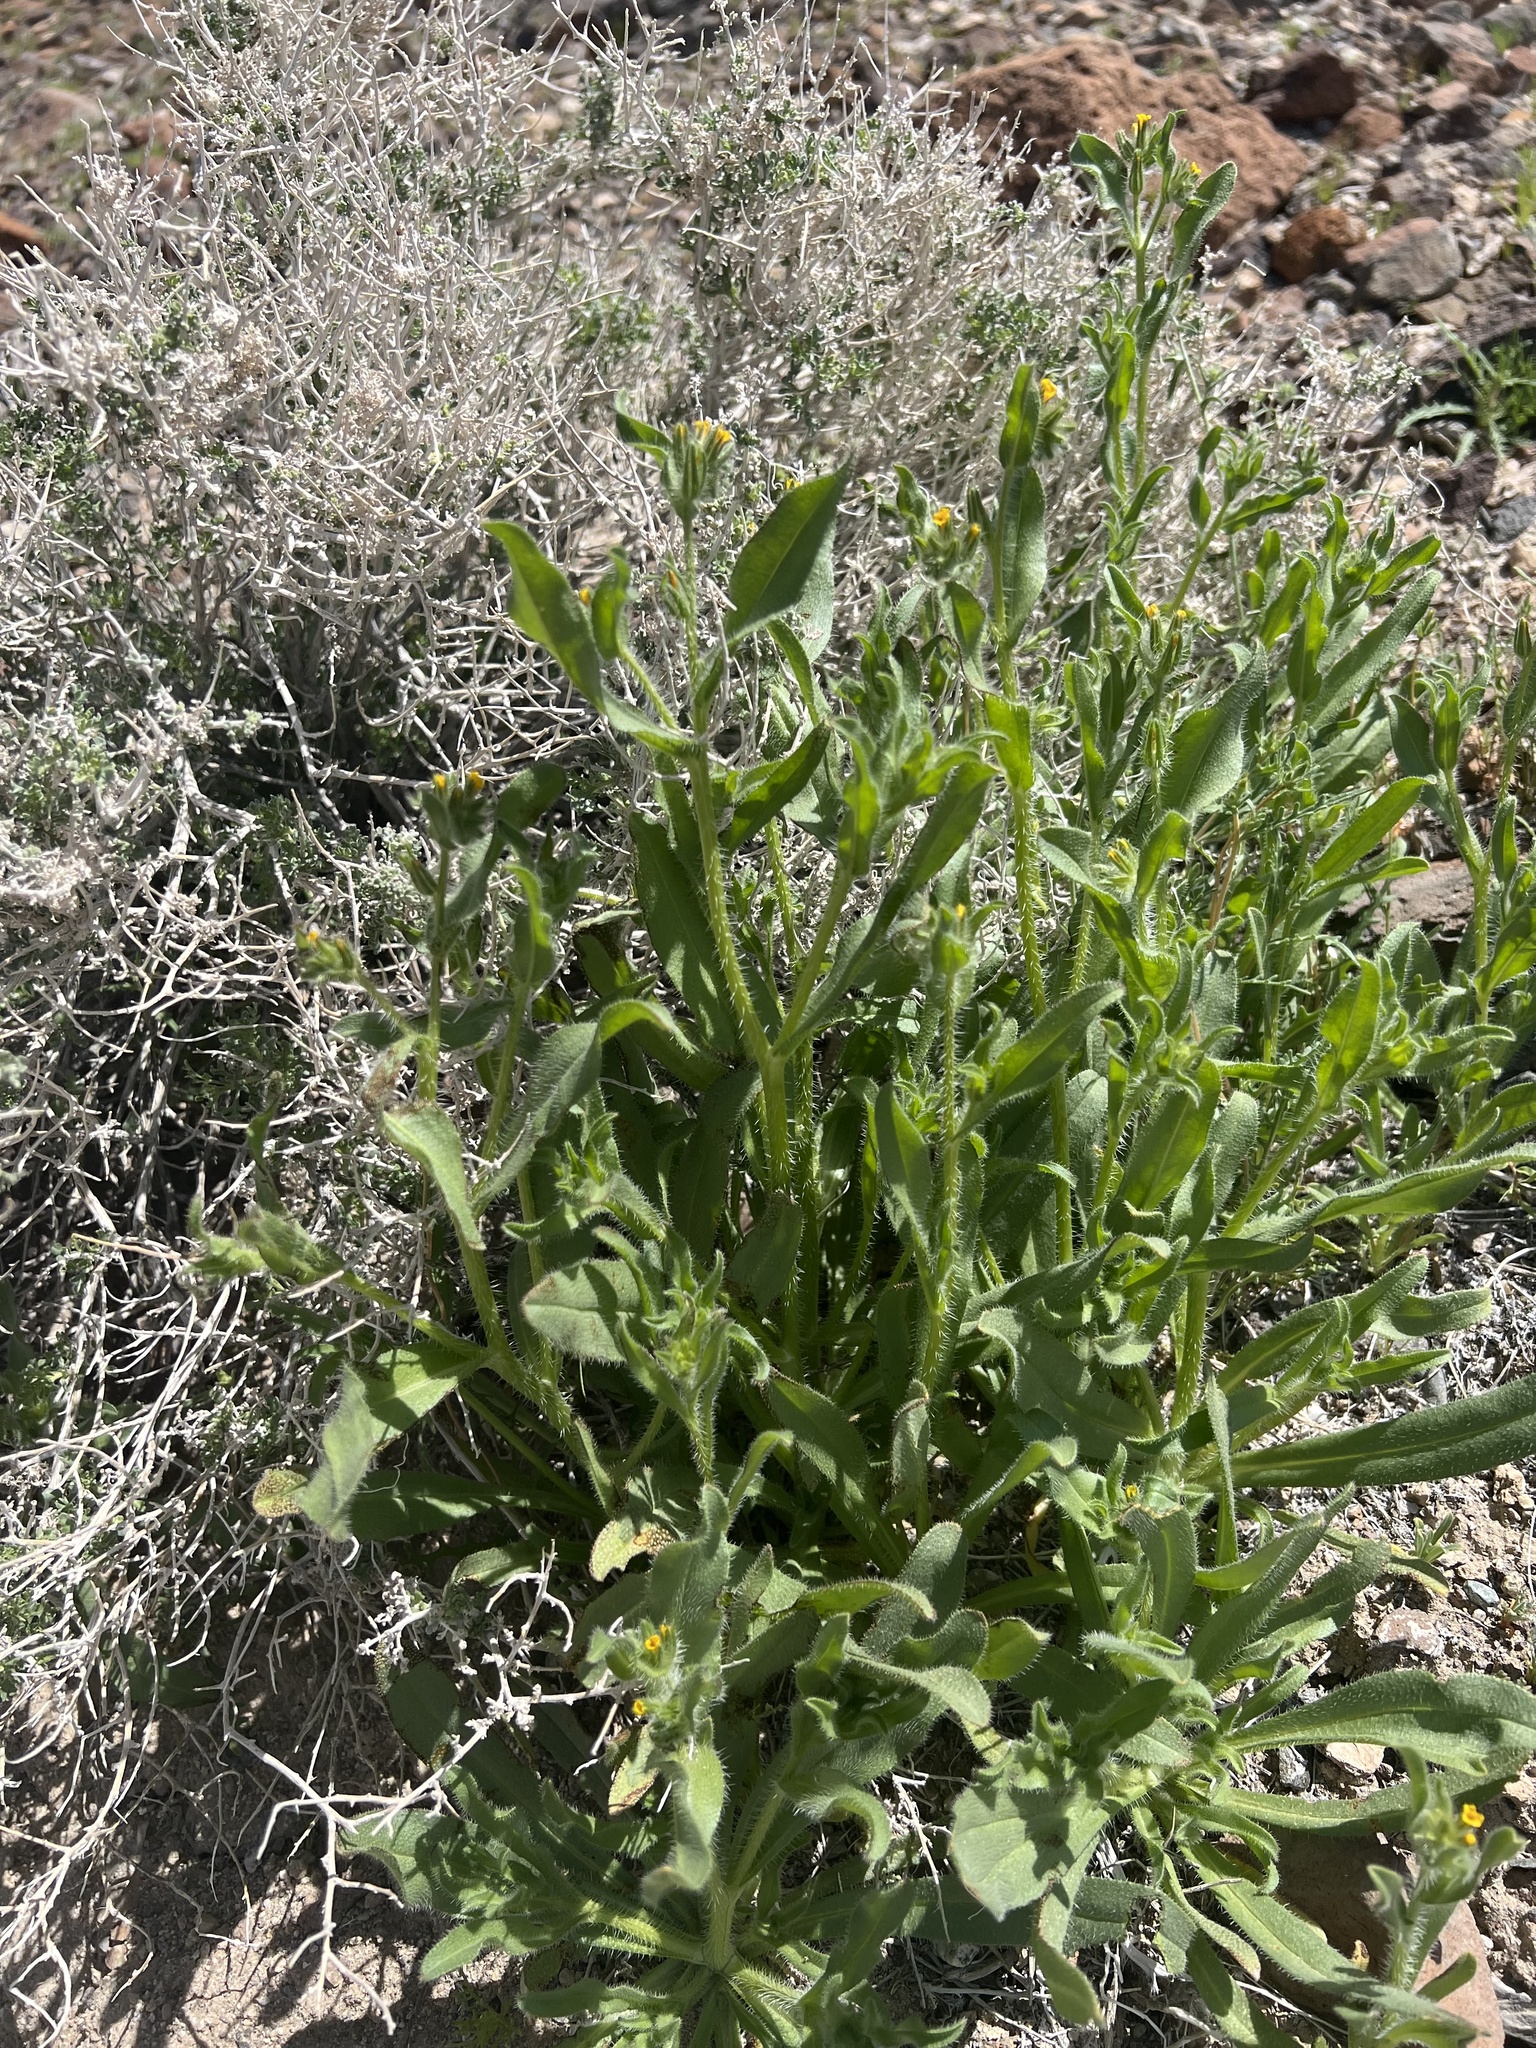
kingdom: Plantae
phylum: Tracheophyta
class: Magnoliopsida
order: Boraginales
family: Boraginaceae
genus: Amsinckia
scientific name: Amsinckia tessellata
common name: Tessellate fiddleneck
